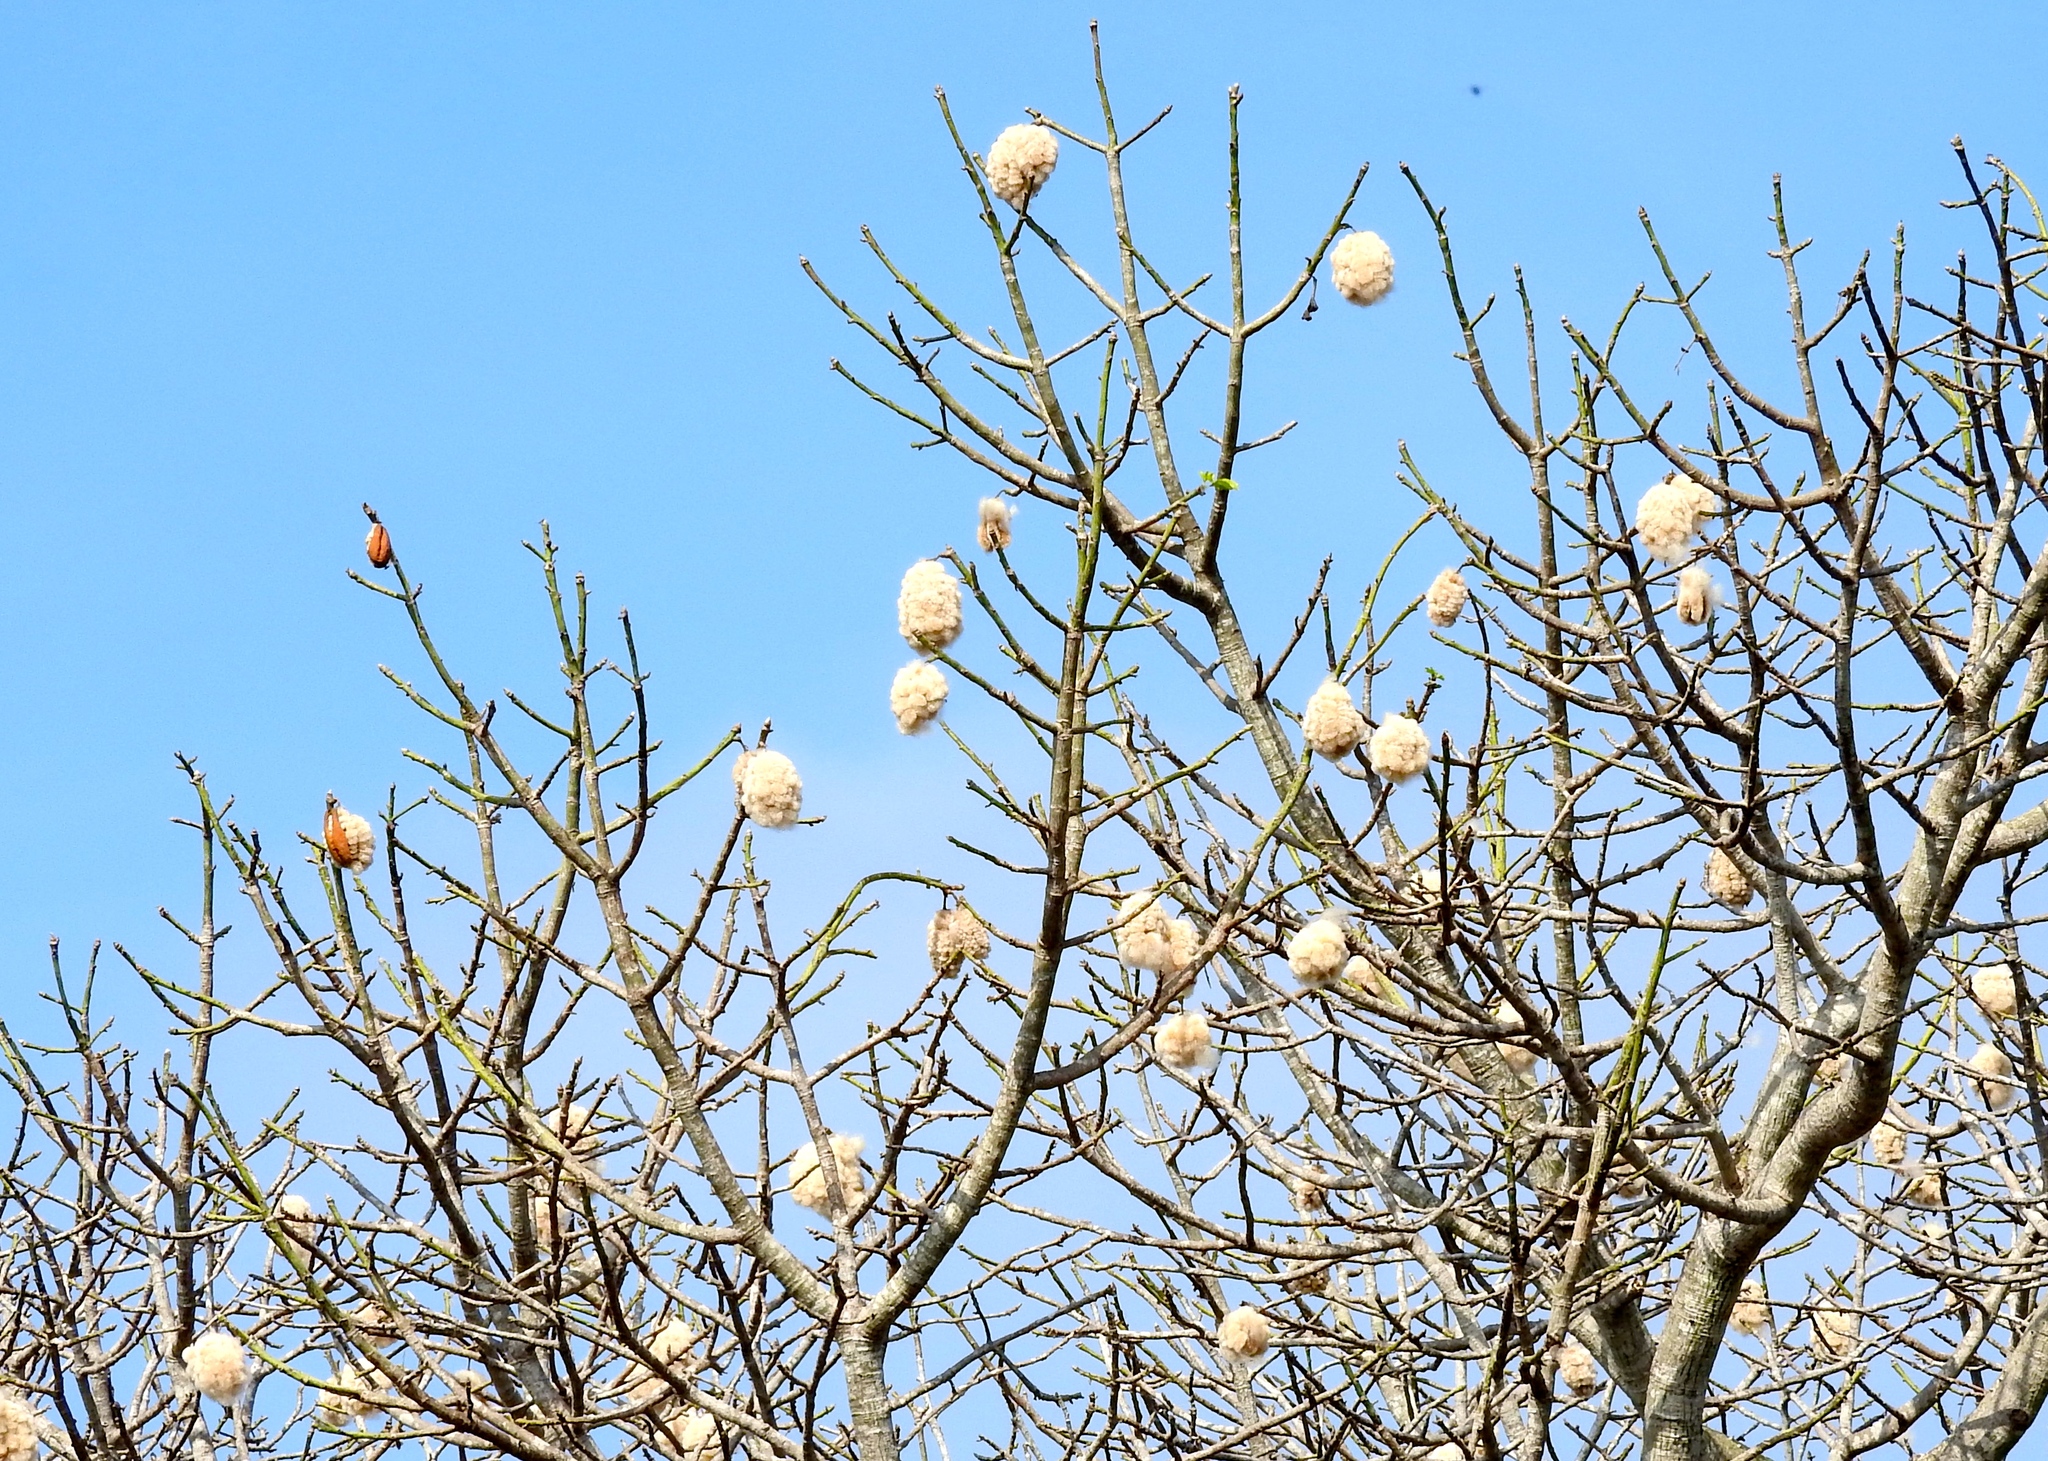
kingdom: Plantae
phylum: Tracheophyta
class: Magnoliopsida
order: Malvales
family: Malvaceae
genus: Ceiba
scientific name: Ceiba pentandra
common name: Kapok
